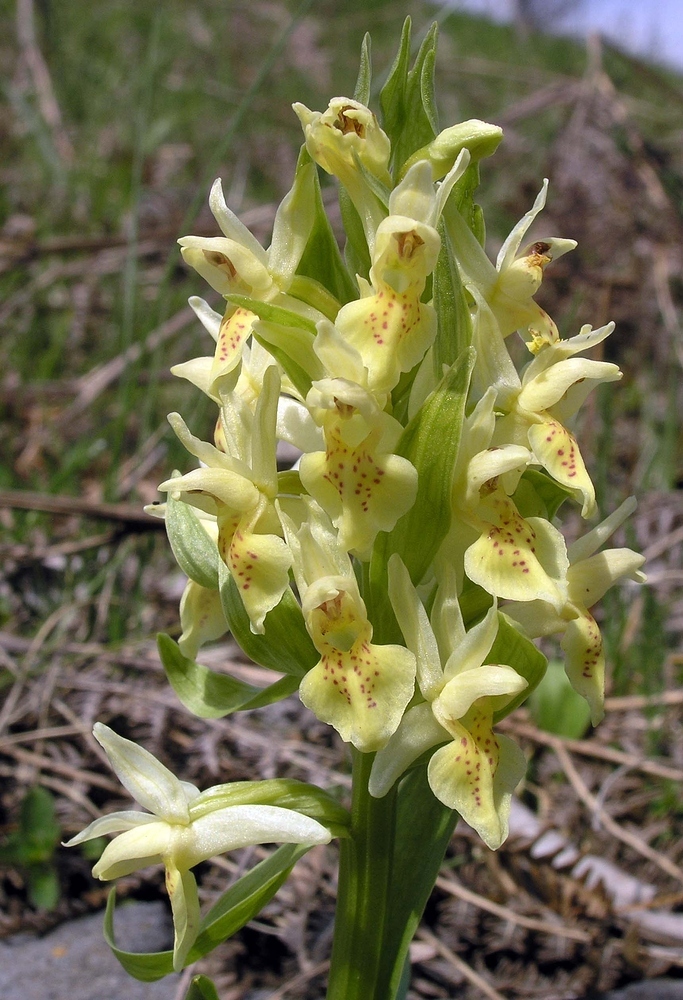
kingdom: Plantae
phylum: Tracheophyta
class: Liliopsida
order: Asparagales
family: Orchidaceae
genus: Dactylorhiza
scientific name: Dactylorhiza sambucina
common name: Elder-flowered orchid
